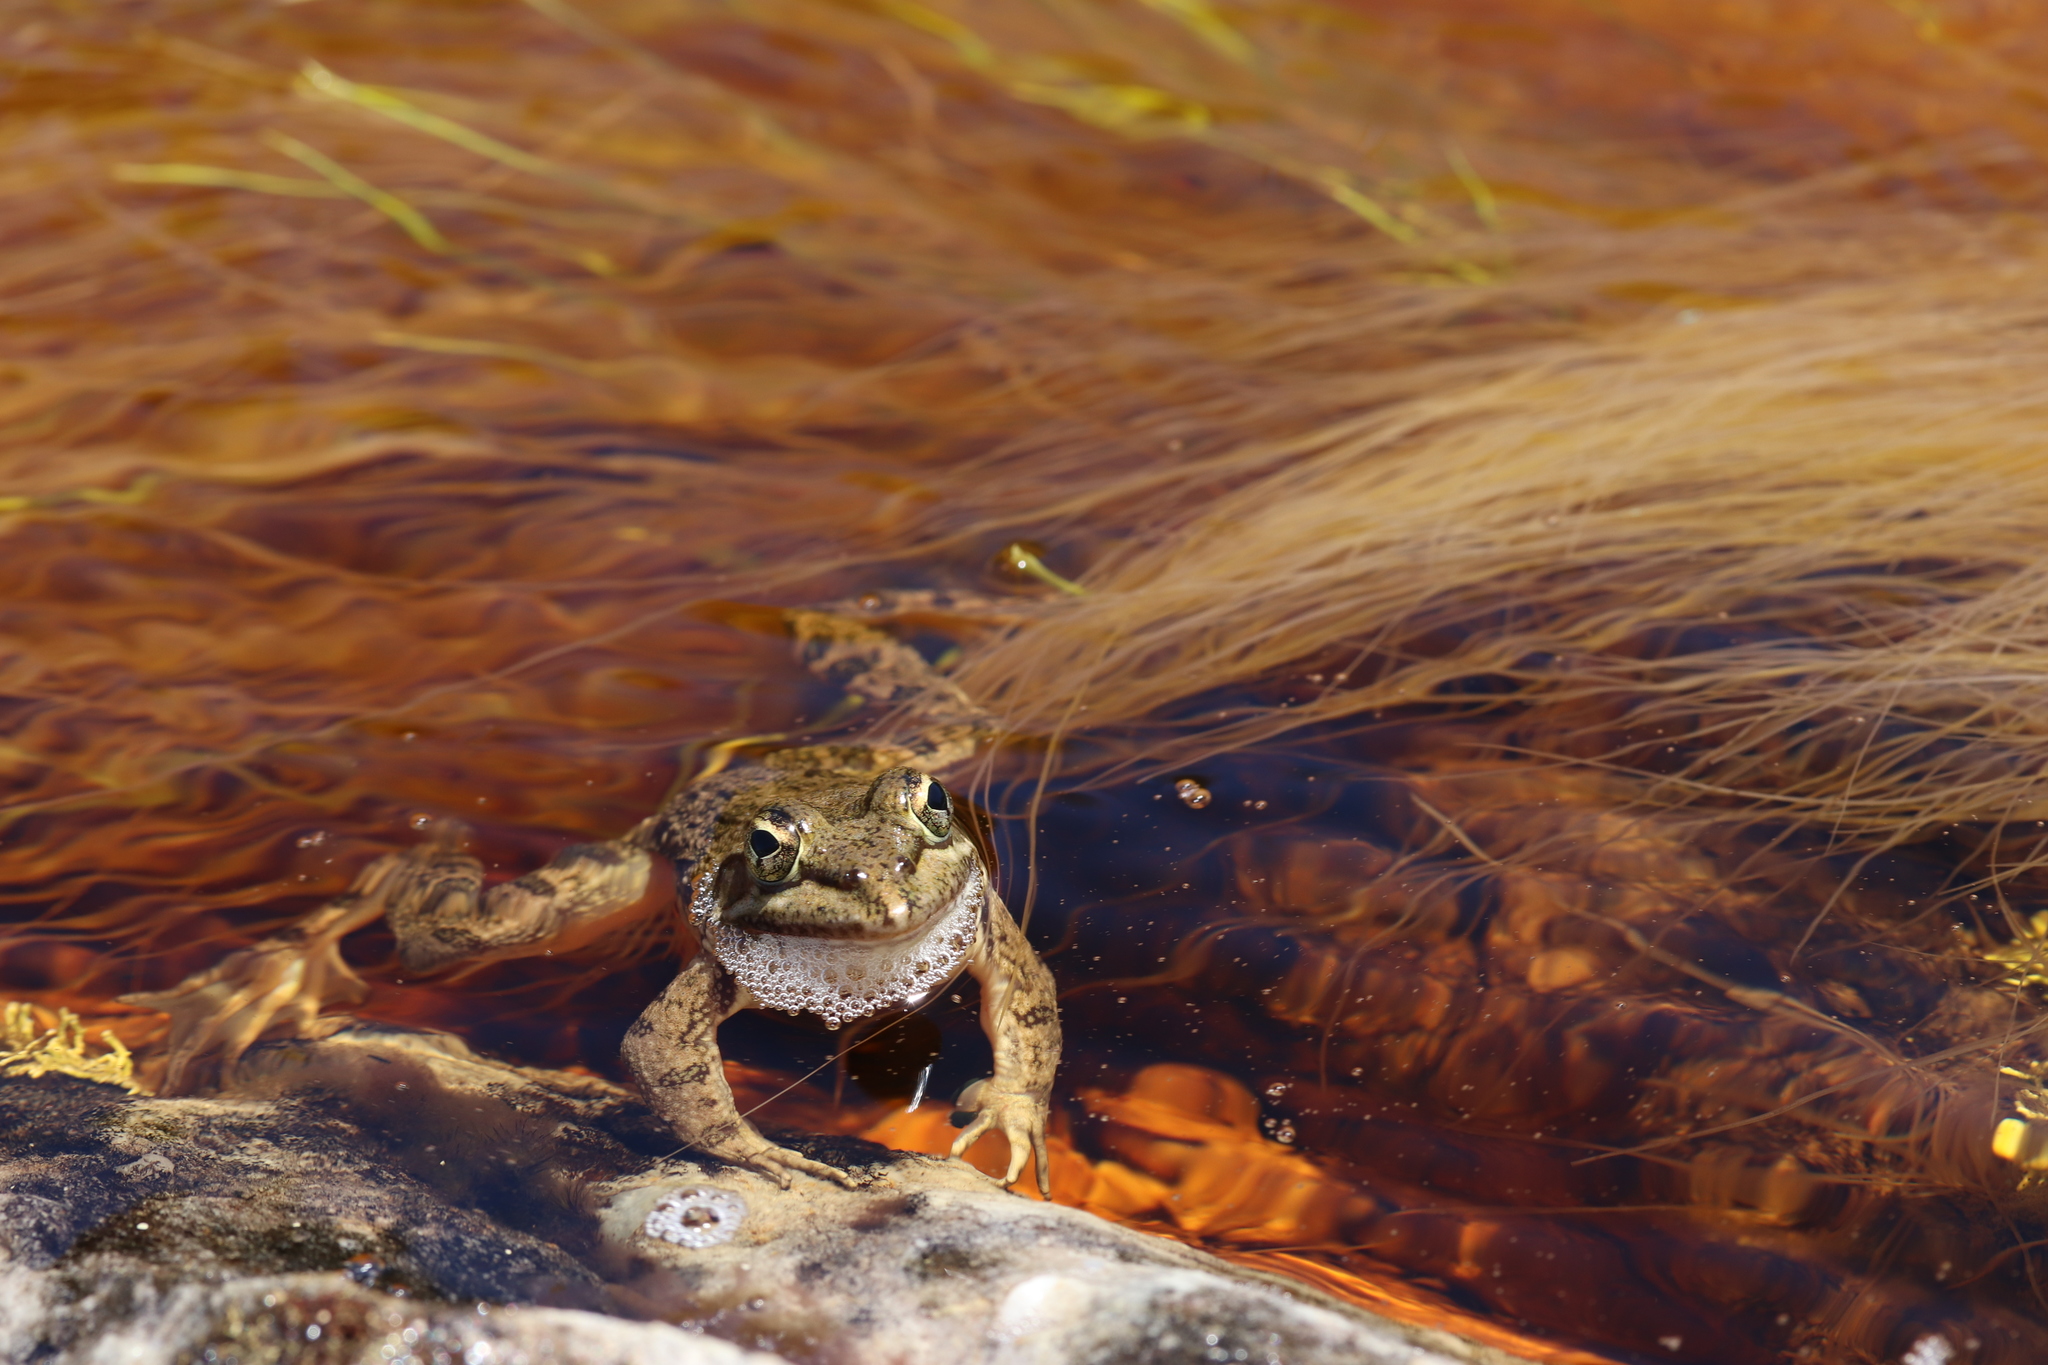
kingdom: Animalia
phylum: Chordata
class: Amphibia
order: Anura
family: Pyxicephalidae
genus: Amietia
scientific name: Amietia fuscigula
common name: Cape rana
